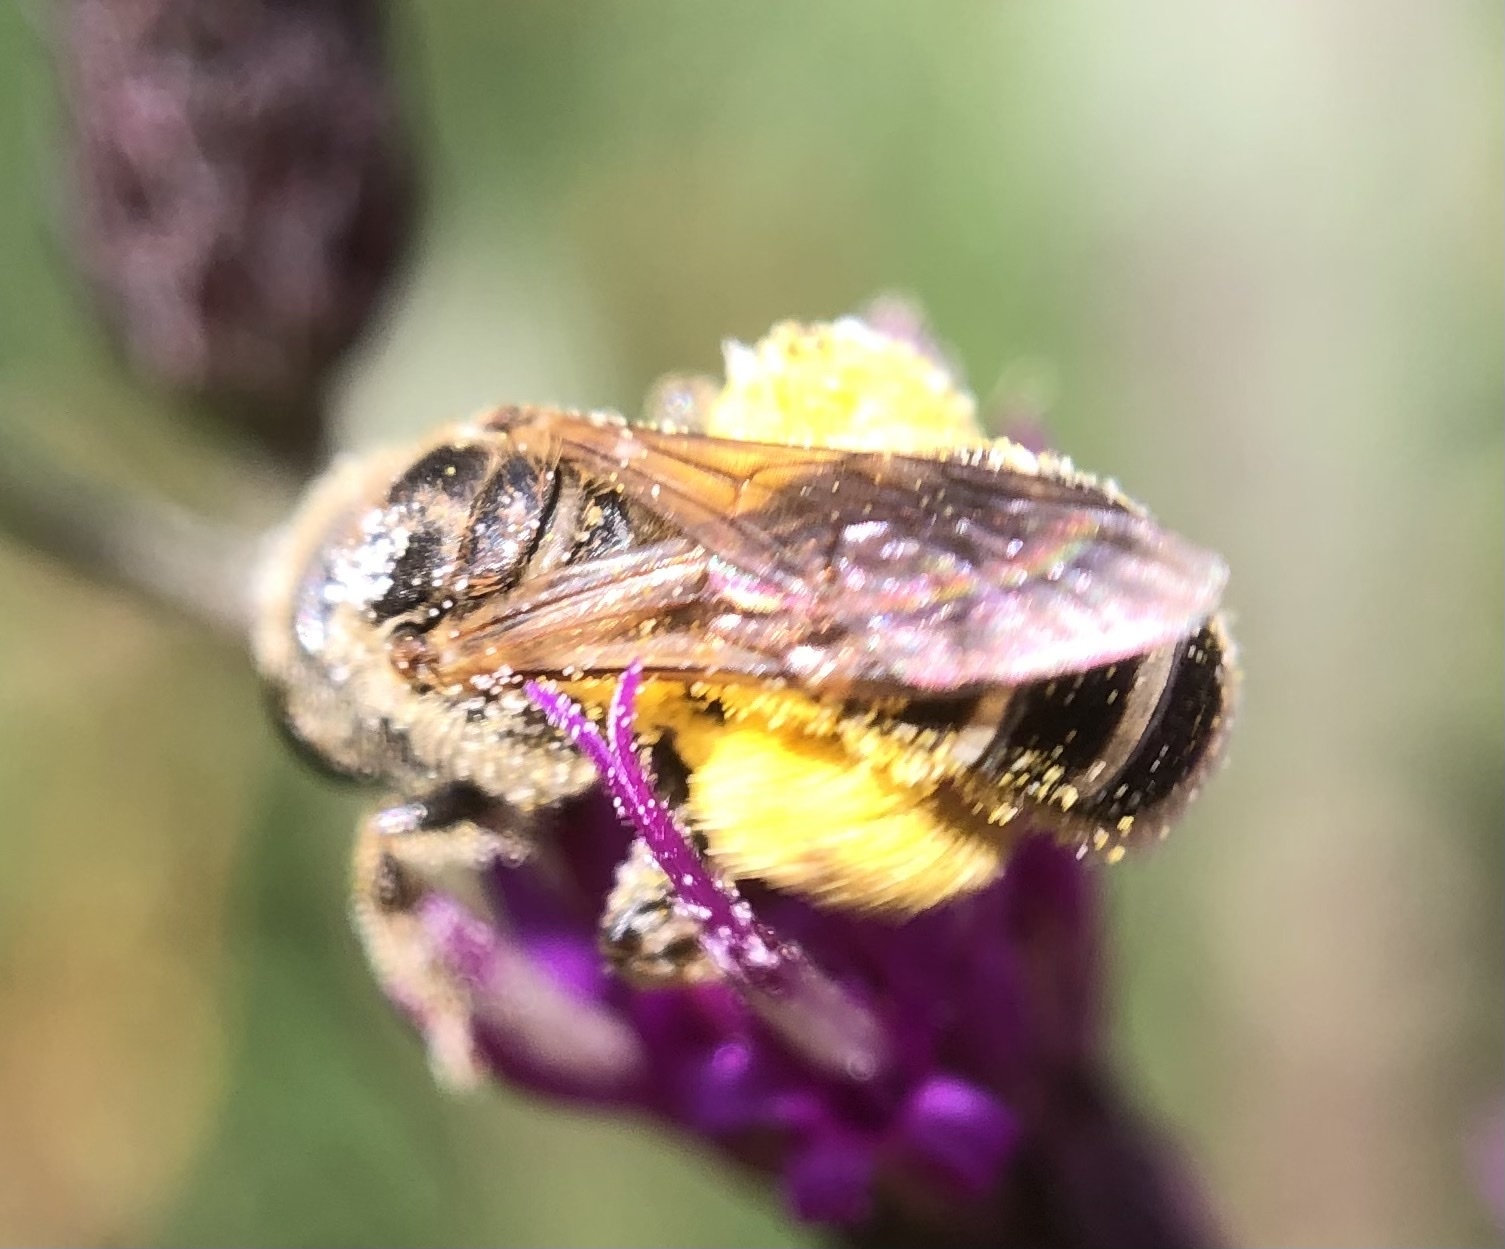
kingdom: Animalia
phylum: Arthropoda
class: Insecta
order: Hymenoptera
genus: Odontalictus
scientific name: Odontalictus
